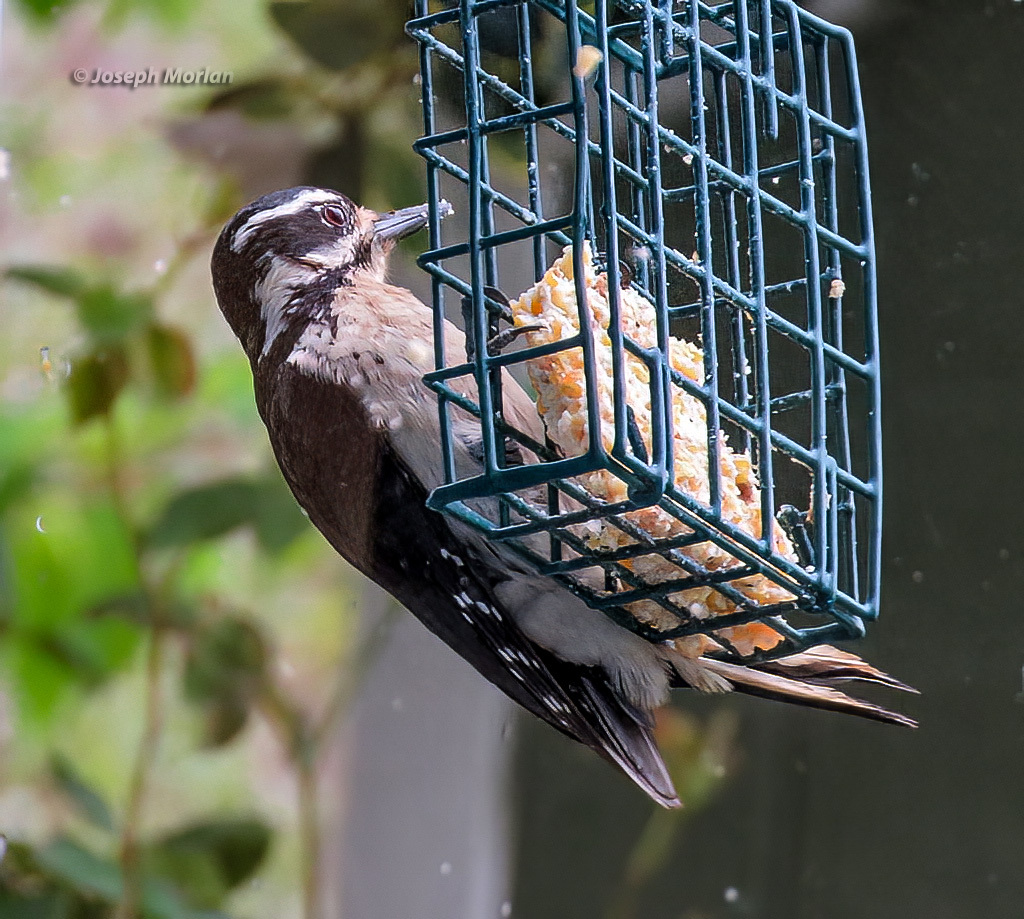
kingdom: Animalia
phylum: Chordata
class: Aves
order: Piciformes
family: Picidae
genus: Leuconotopicus
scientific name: Leuconotopicus villosus
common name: Hairy woodpecker
